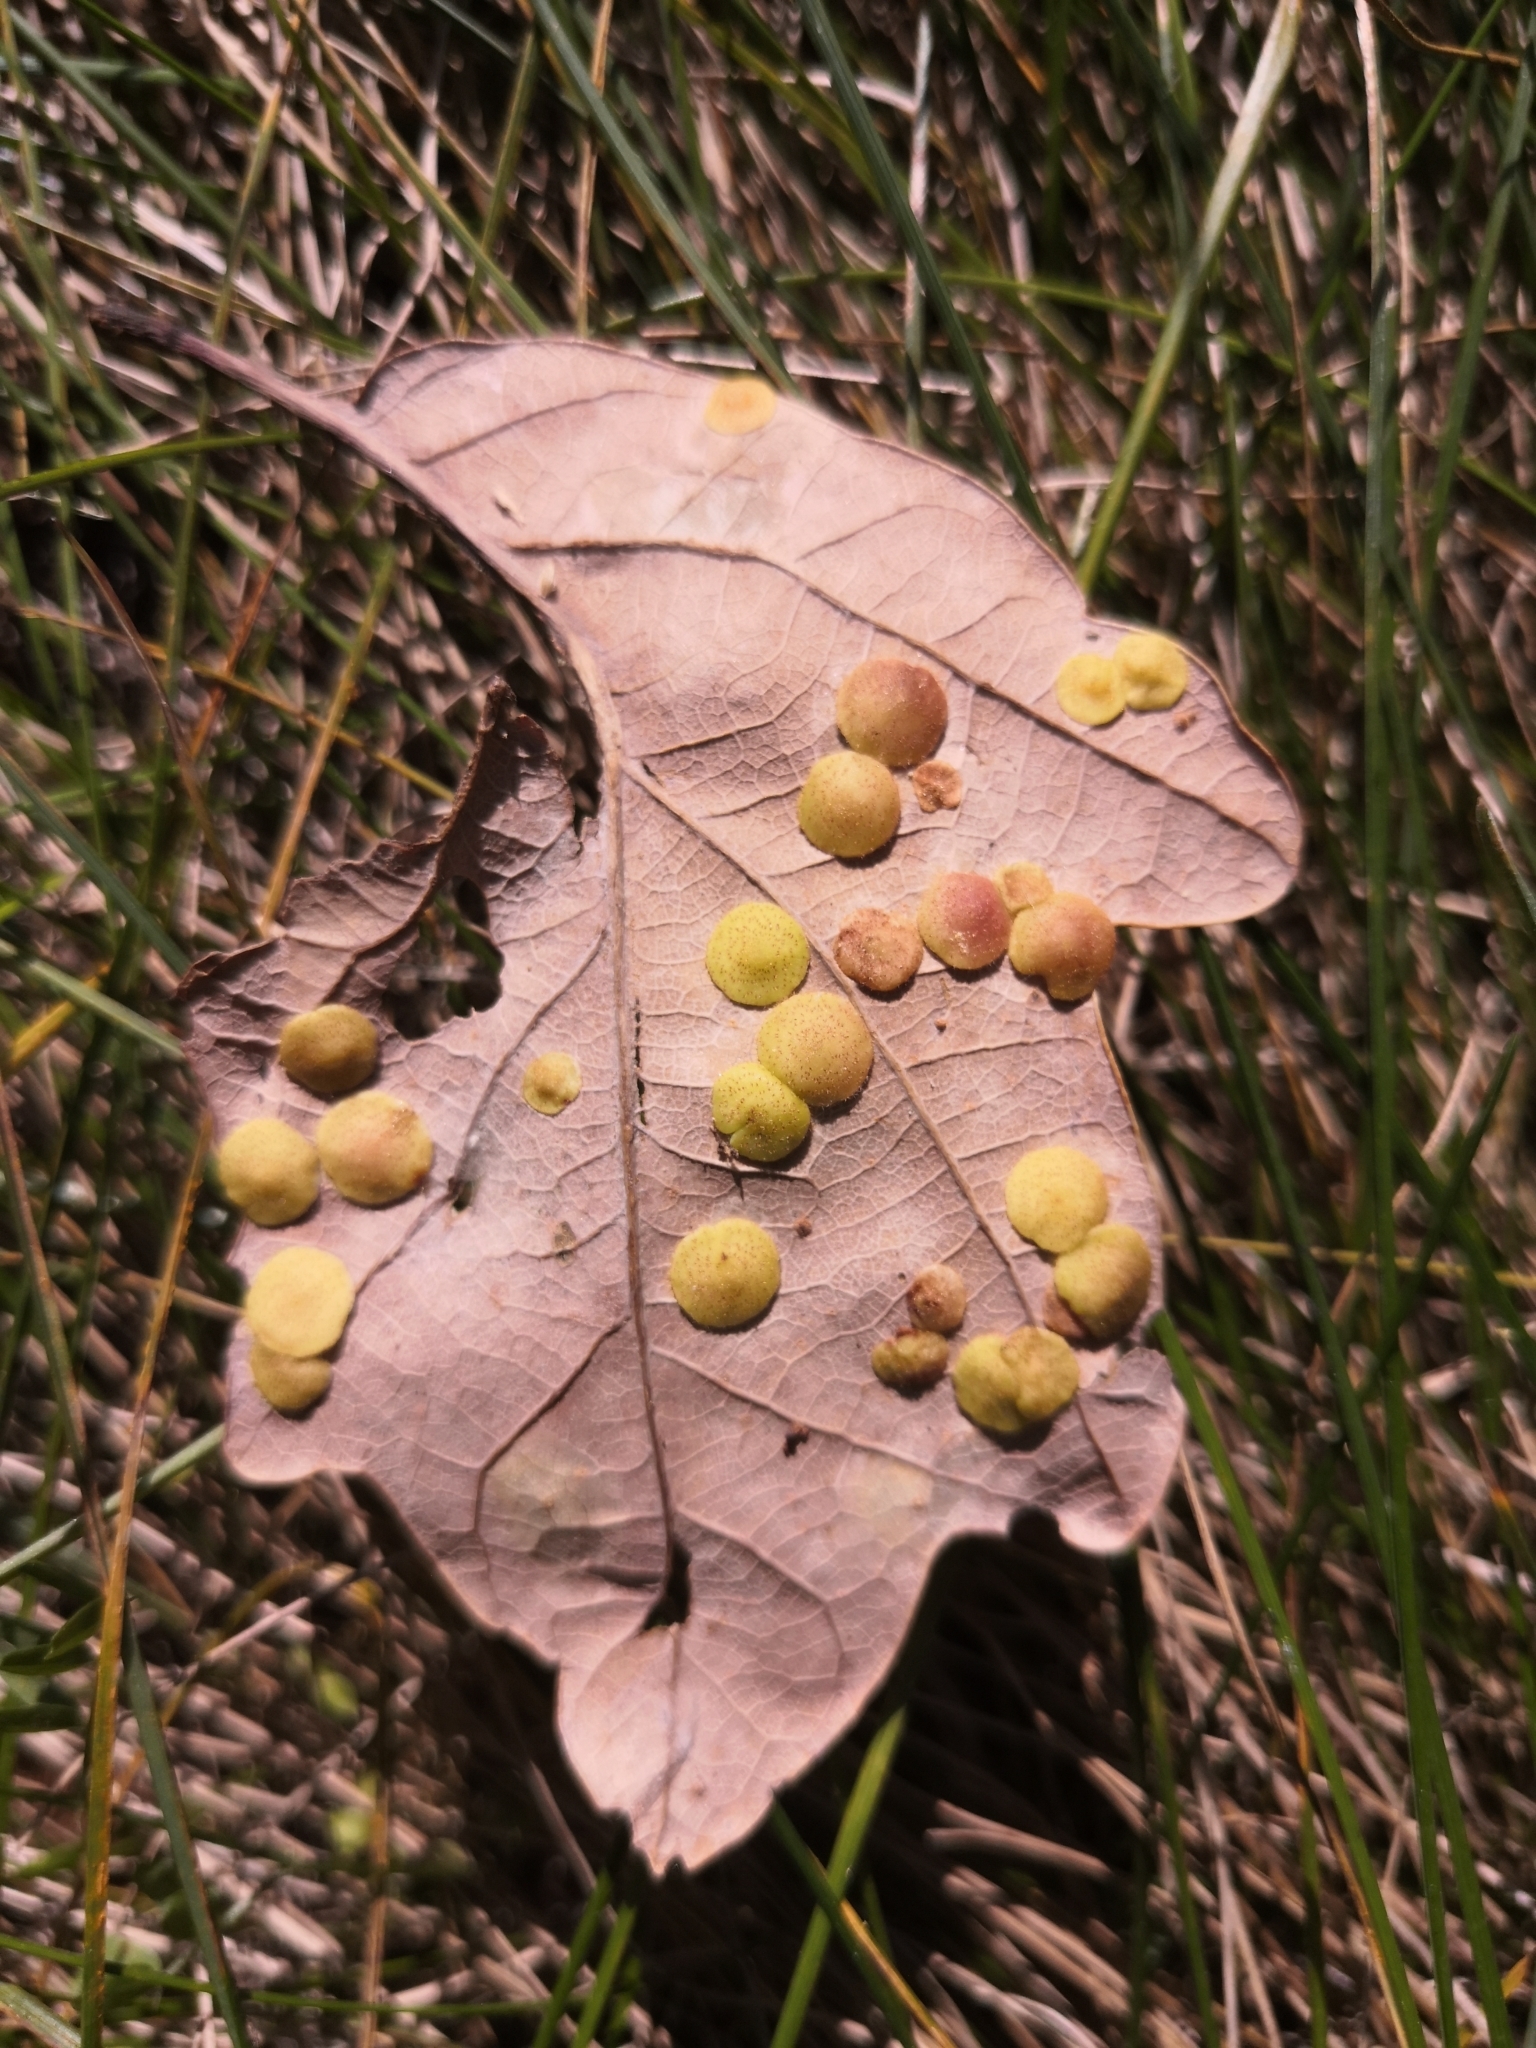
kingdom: Animalia
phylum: Arthropoda
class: Insecta
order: Hymenoptera
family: Cynipidae
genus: Neuroterus
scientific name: Neuroterus quercusbaccarum
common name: Common spangle gall
